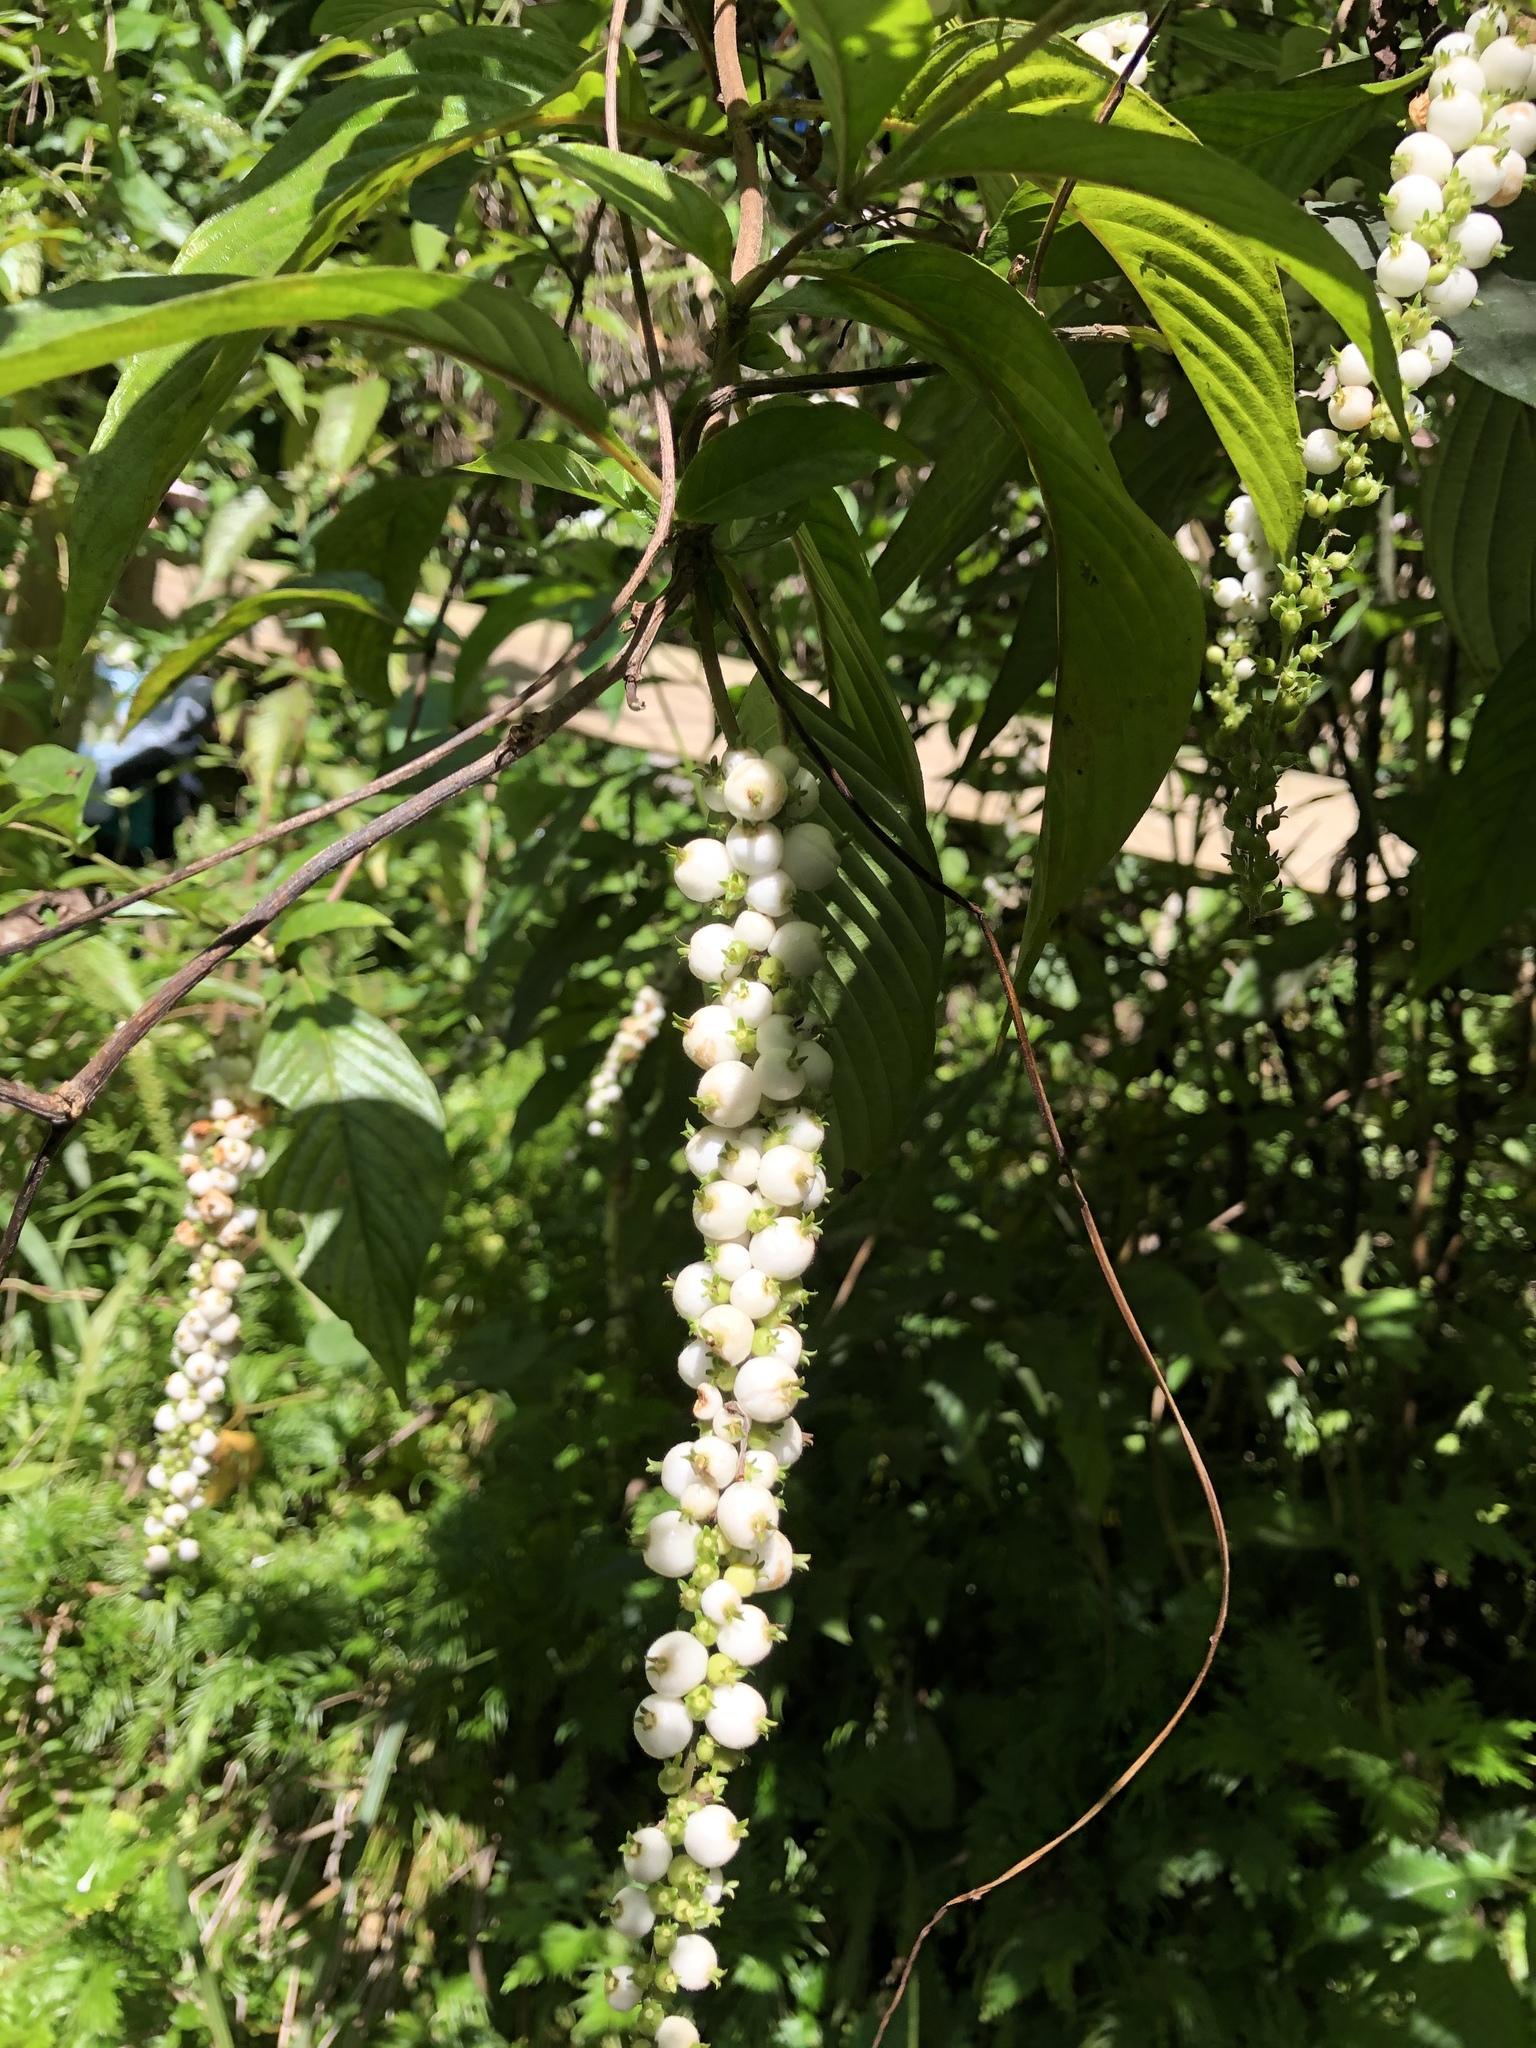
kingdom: Plantae
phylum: Tracheophyta
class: Magnoliopsida
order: Gentianales
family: Rubiaceae
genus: Gonzalagunia
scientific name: Gonzalagunia hirsuta
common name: Mata de mariposa
